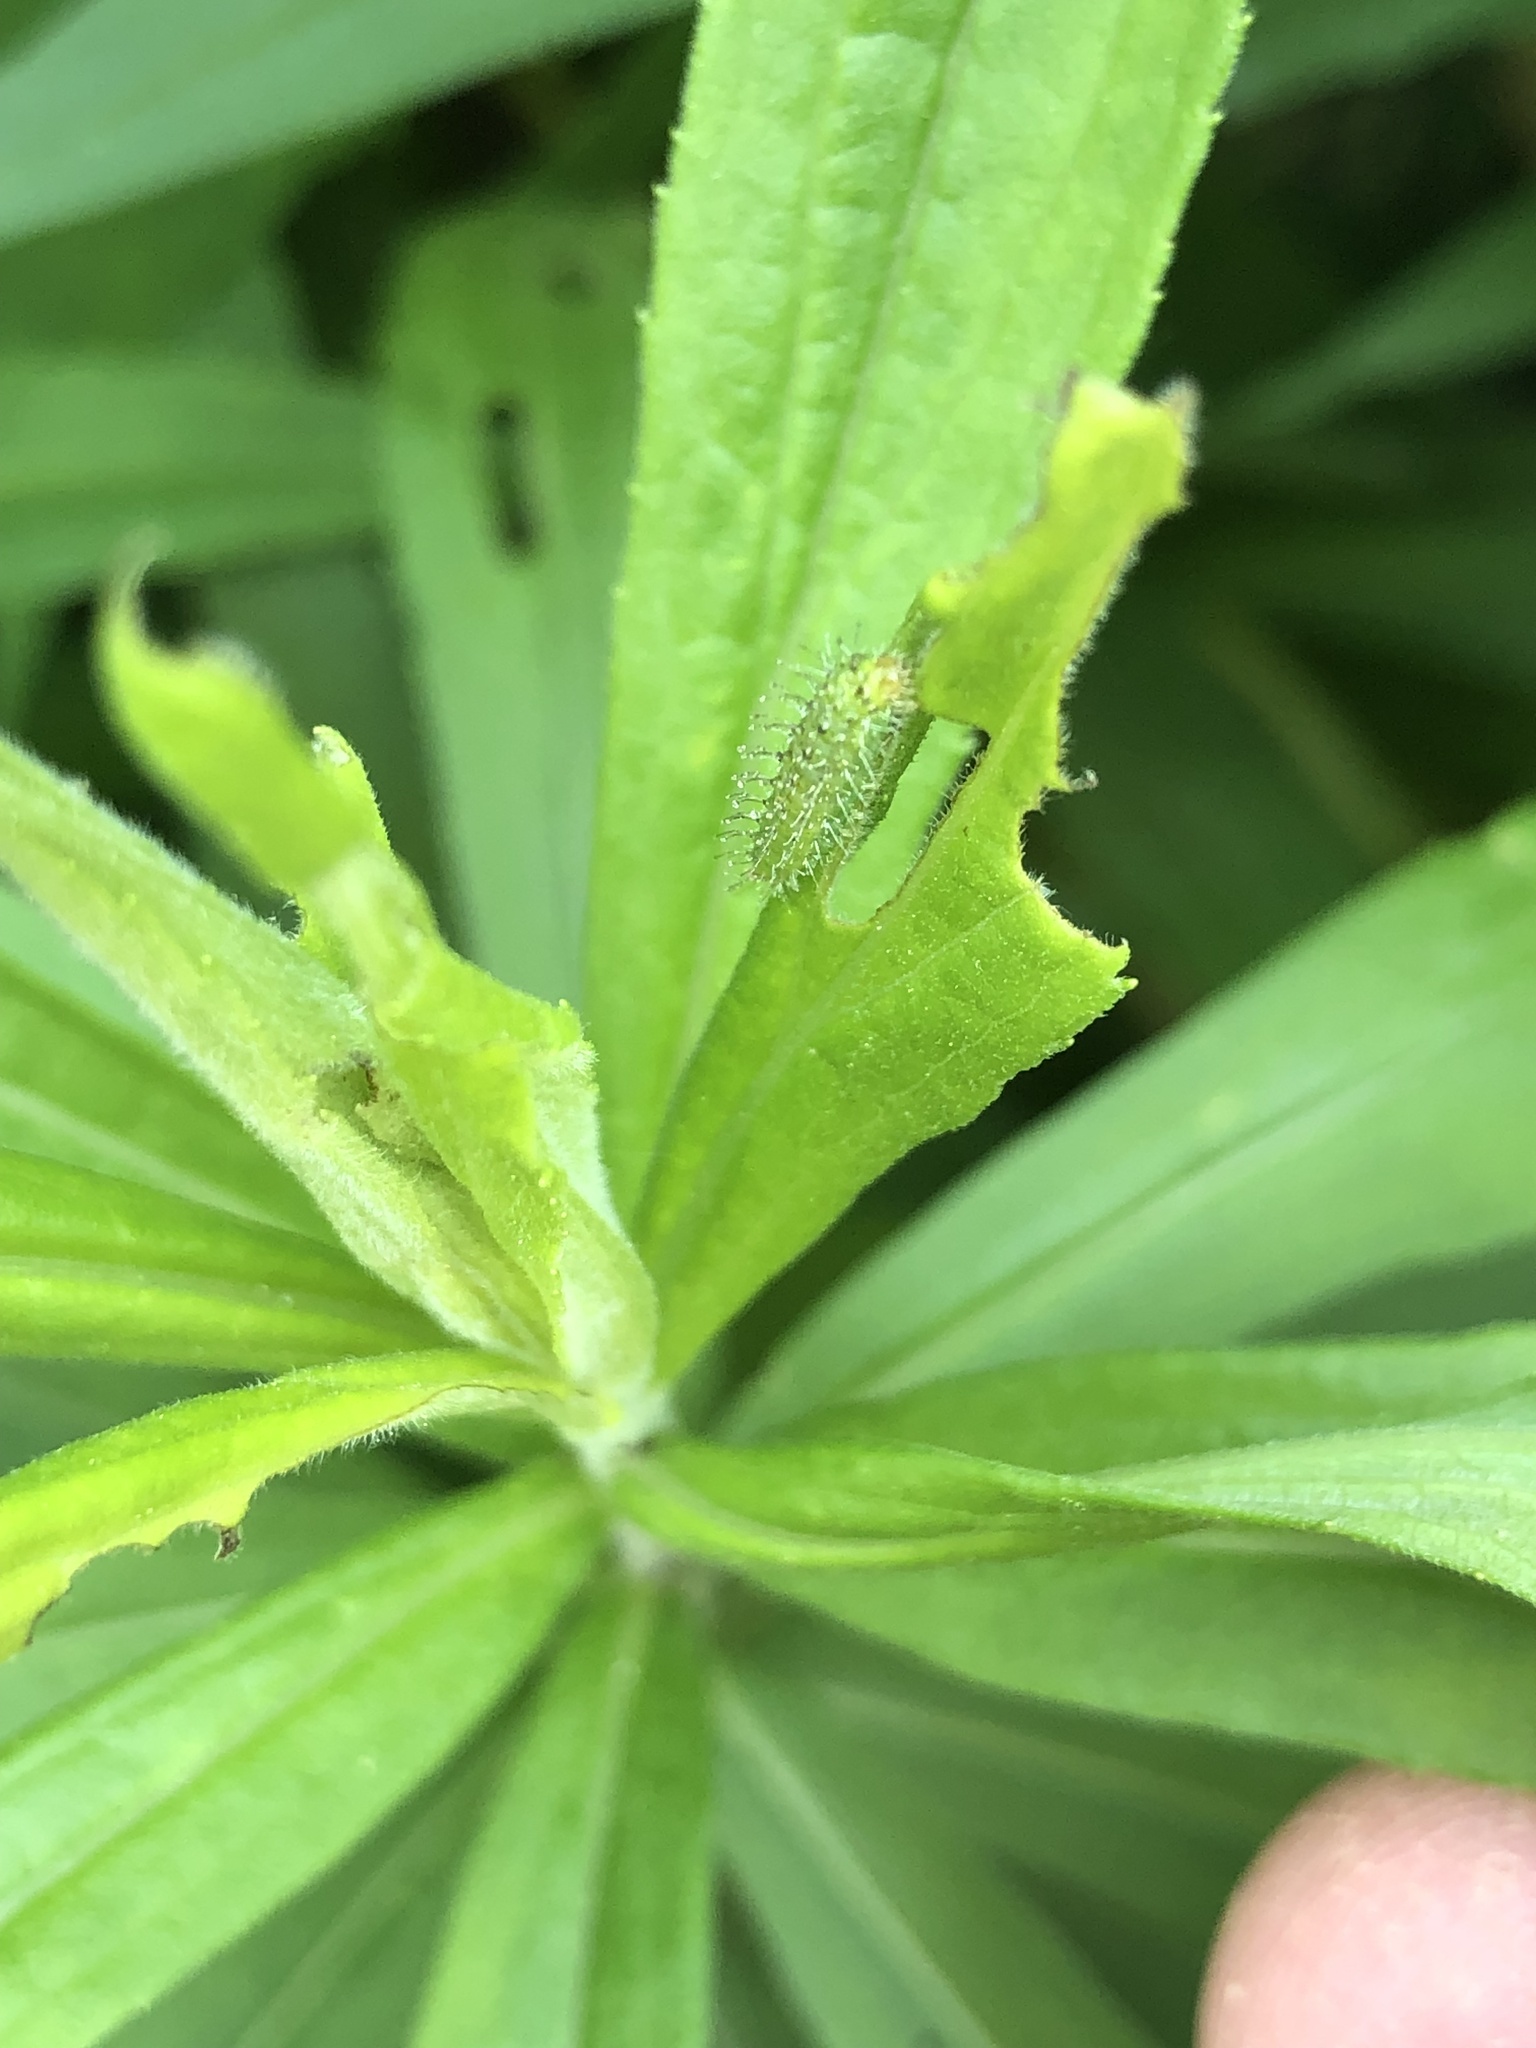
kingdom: Animalia
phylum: Arthropoda
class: Insecta
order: Lepidoptera
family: Pterophoridae
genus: Dejongia
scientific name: Dejongia lobidactylus
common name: Lobed plume moth
